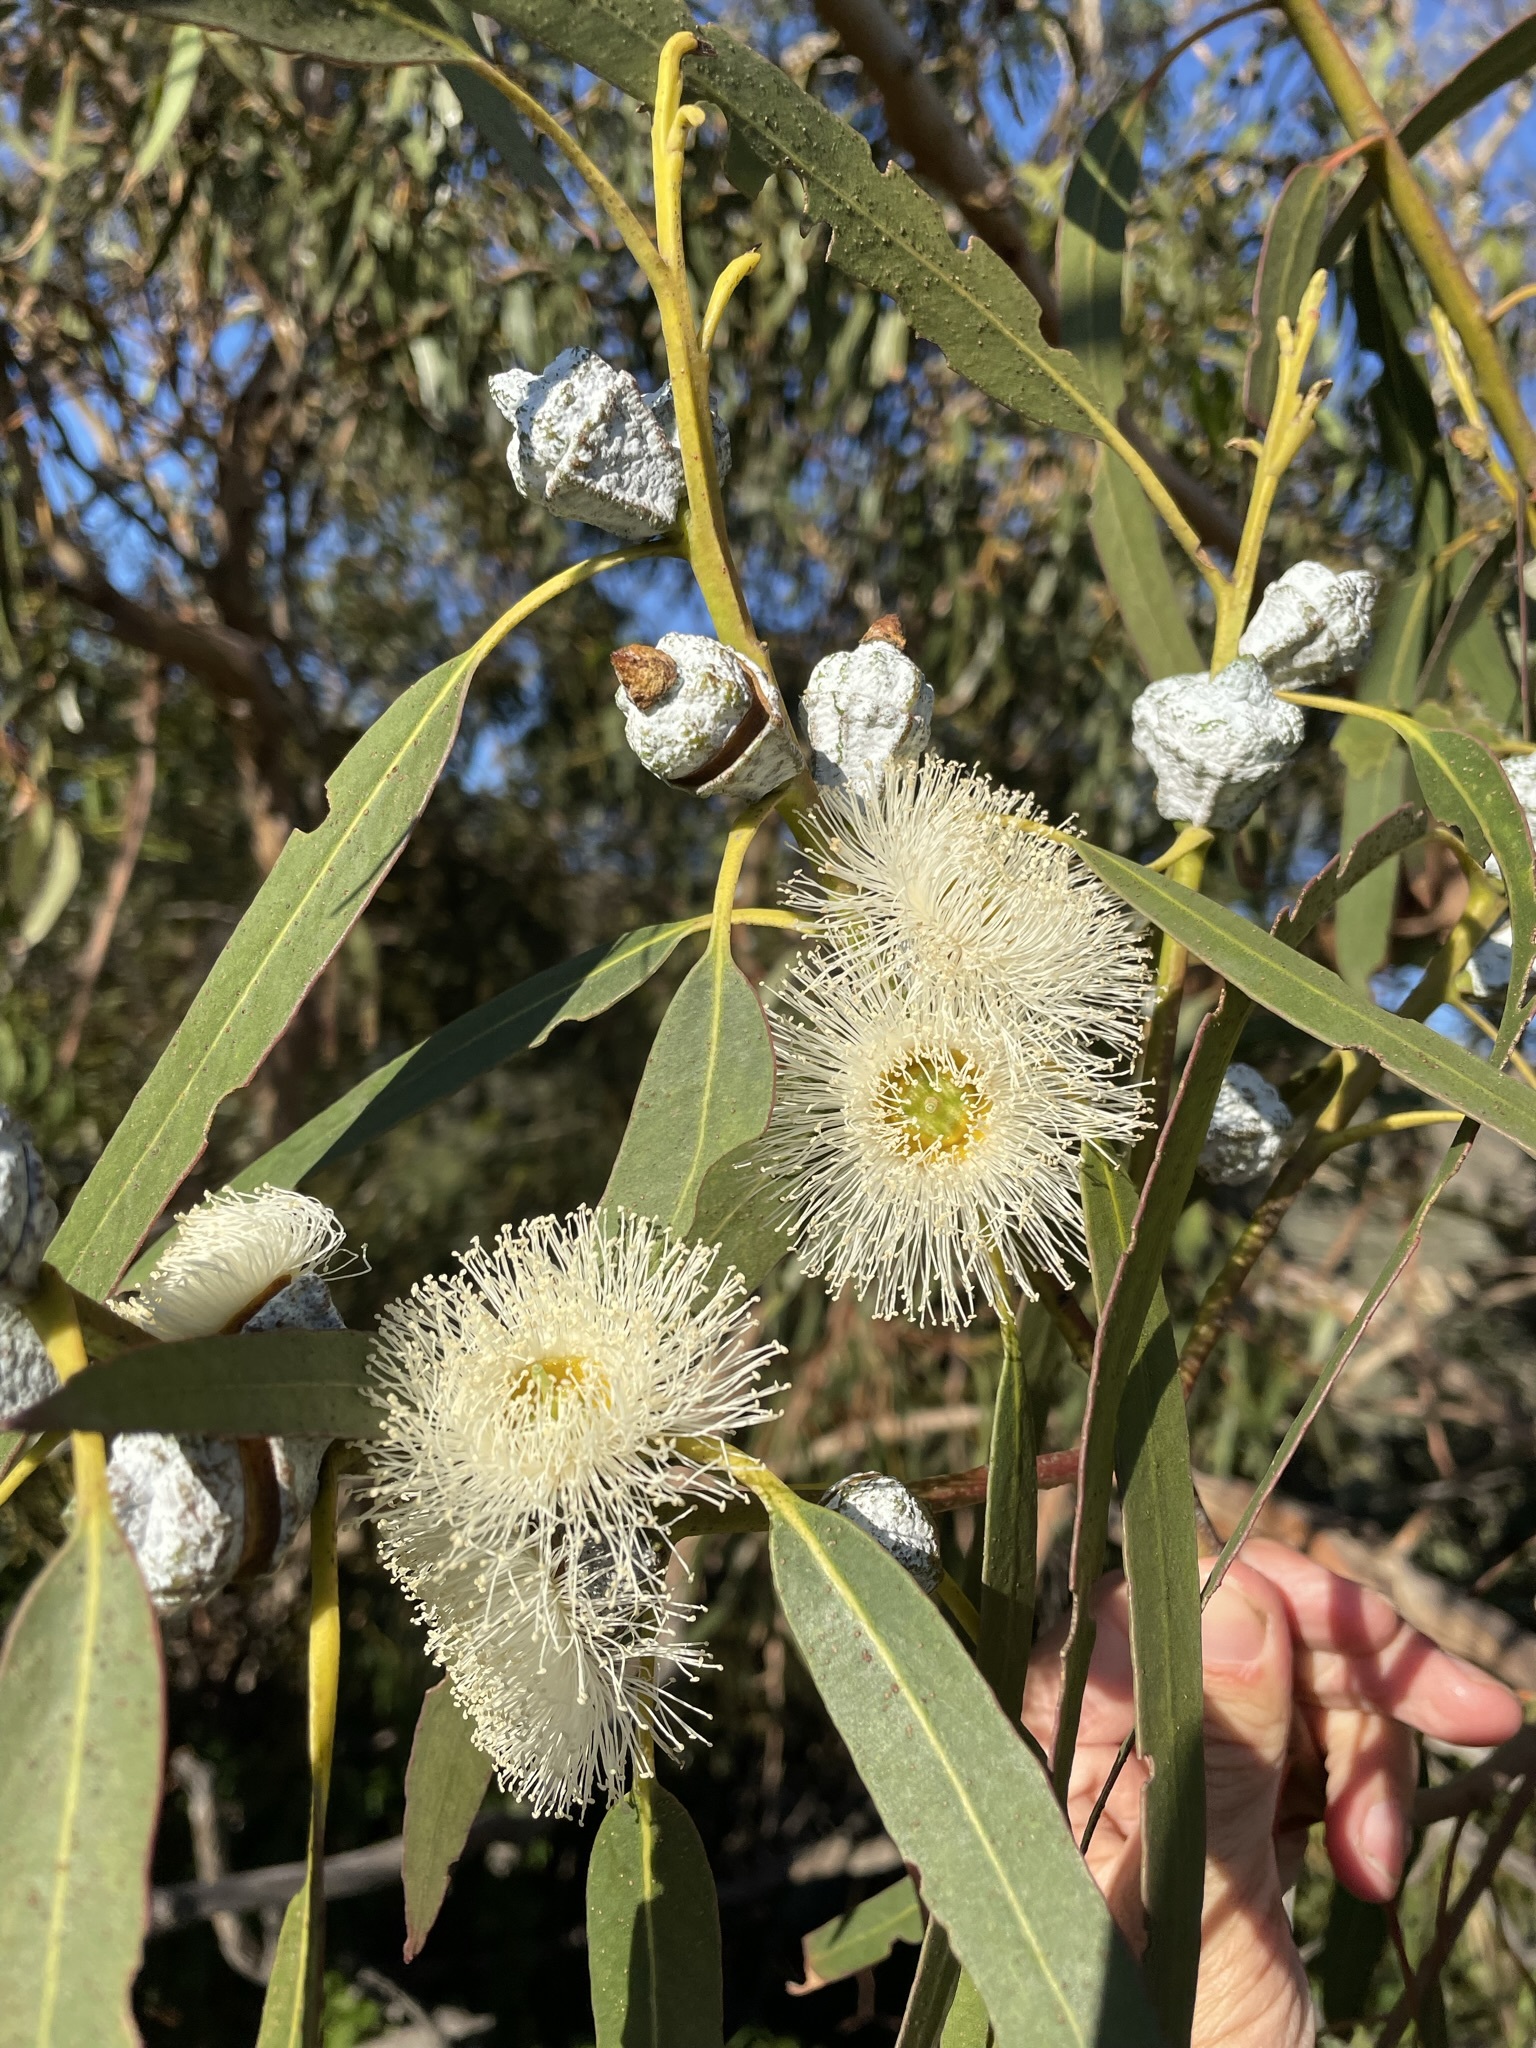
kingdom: Plantae
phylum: Tracheophyta
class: Magnoliopsida
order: Myrtales
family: Myrtaceae
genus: Eucalyptus
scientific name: Eucalyptus globulus
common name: Southern blue-gum
